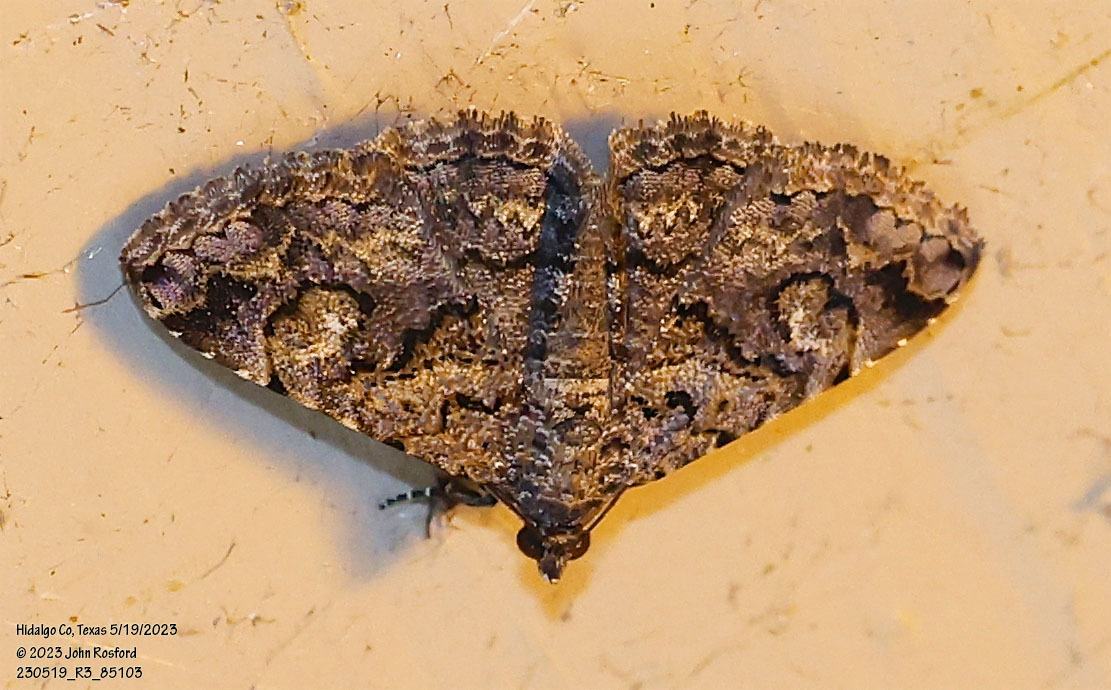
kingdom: Animalia
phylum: Arthropoda
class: Insecta
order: Lepidoptera
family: Erebidae
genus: Toxonprucha
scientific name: Toxonprucha excavata
